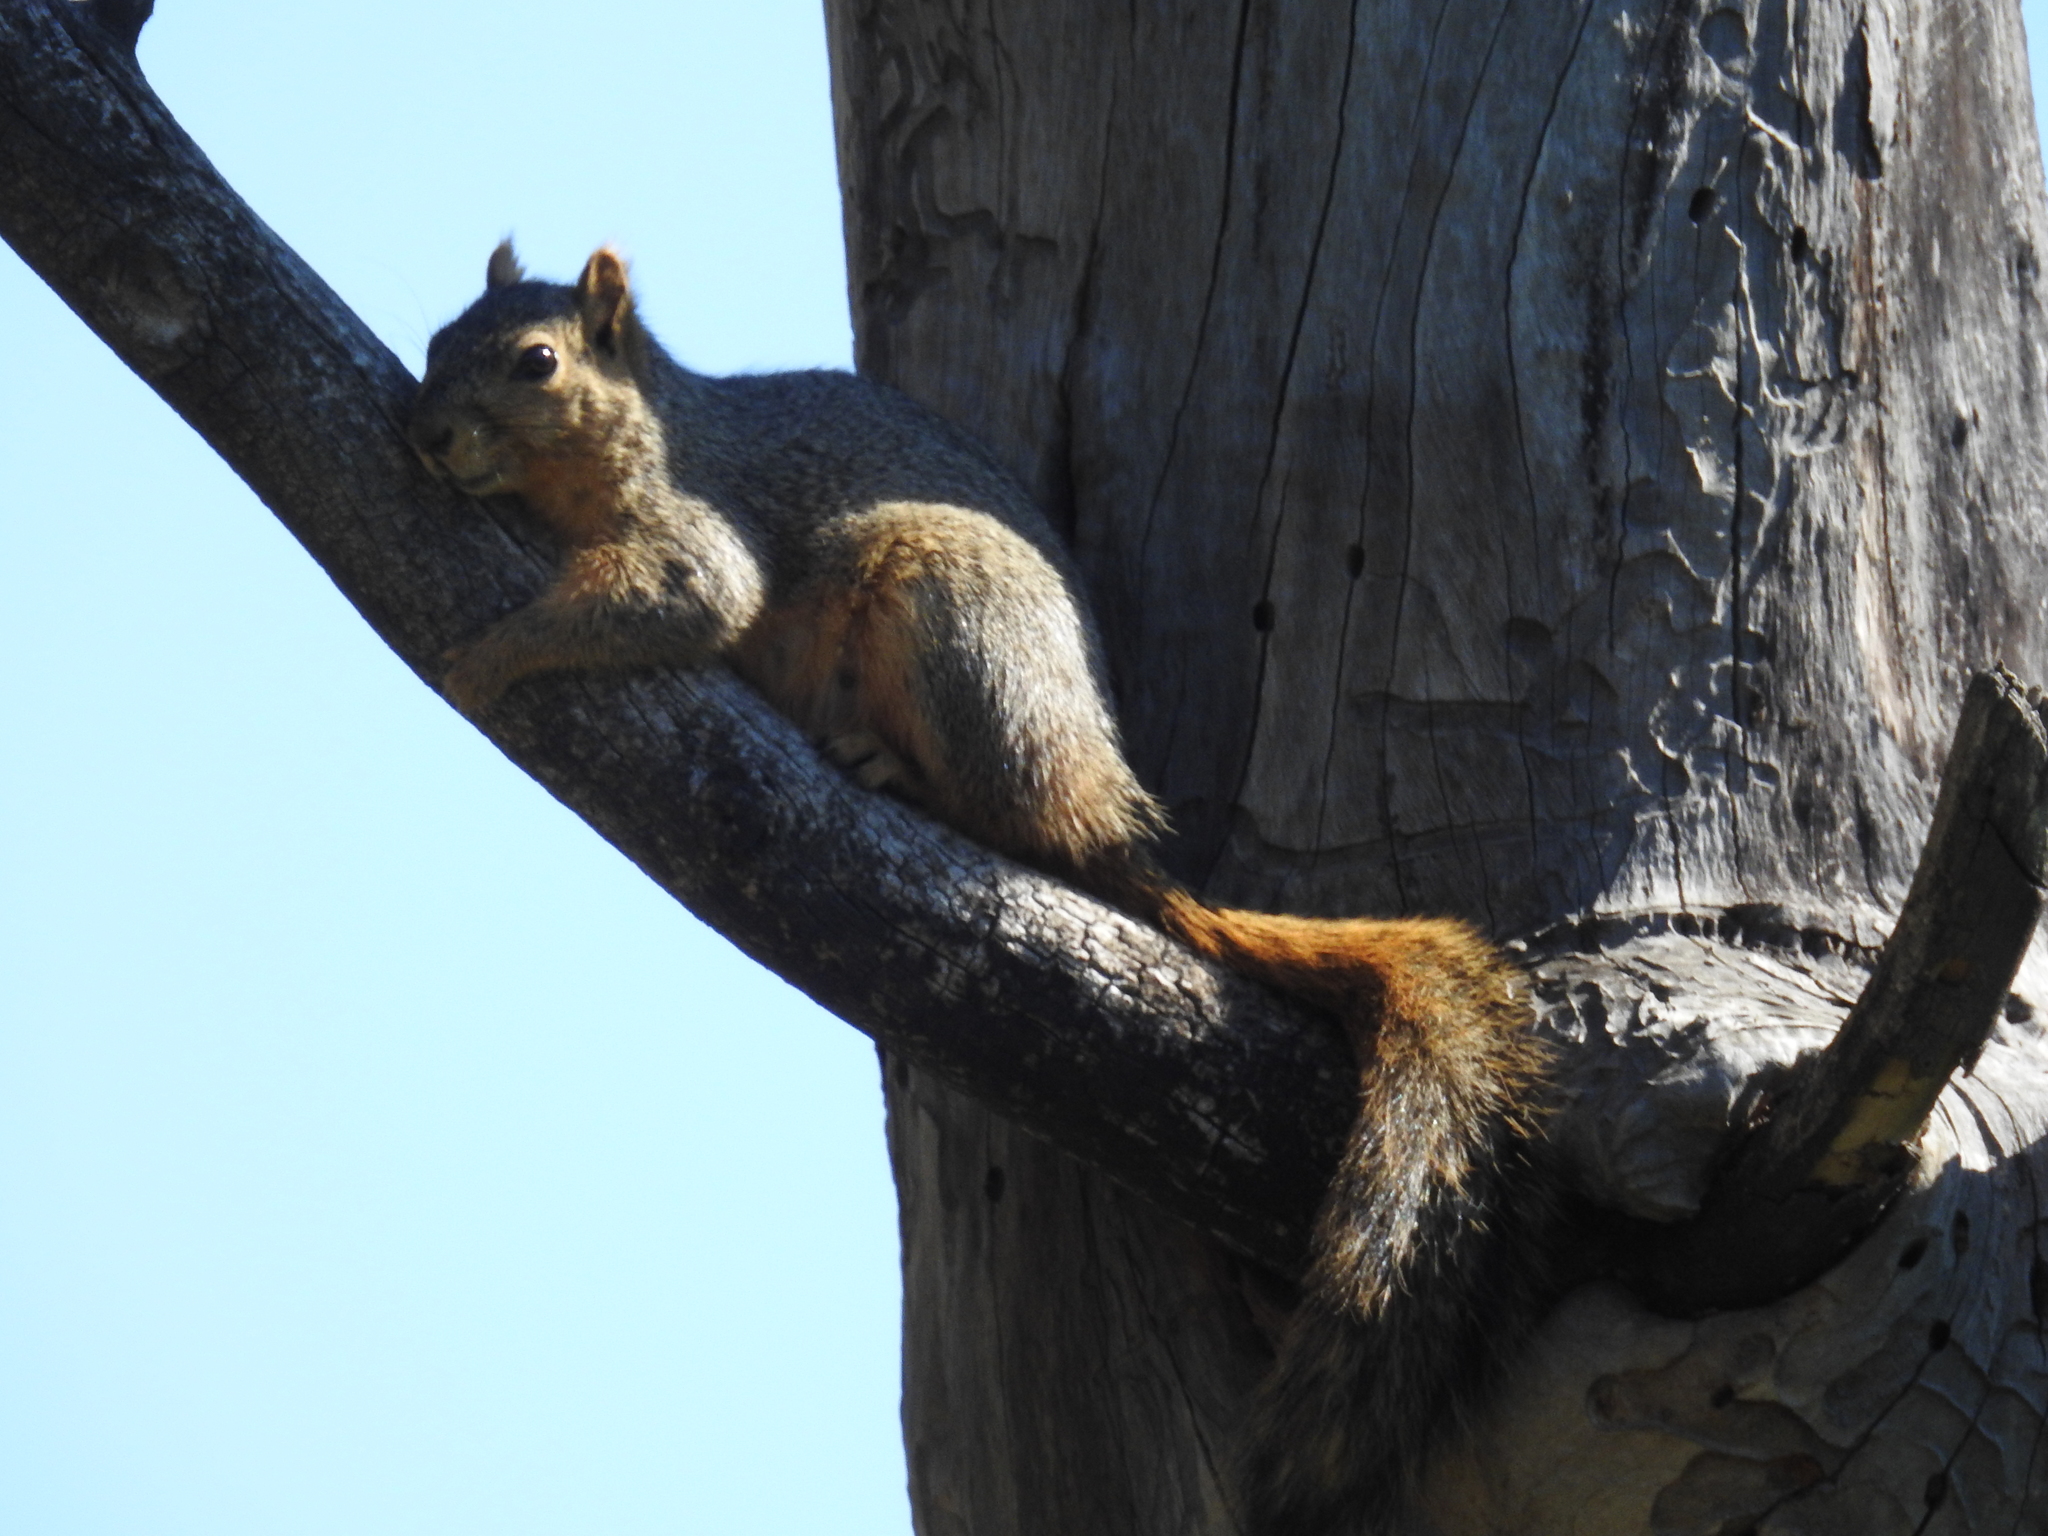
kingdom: Animalia
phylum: Chordata
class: Mammalia
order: Rodentia
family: Sciuridae
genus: Sciurus
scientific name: Sciurus niger
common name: Fox squirrel
